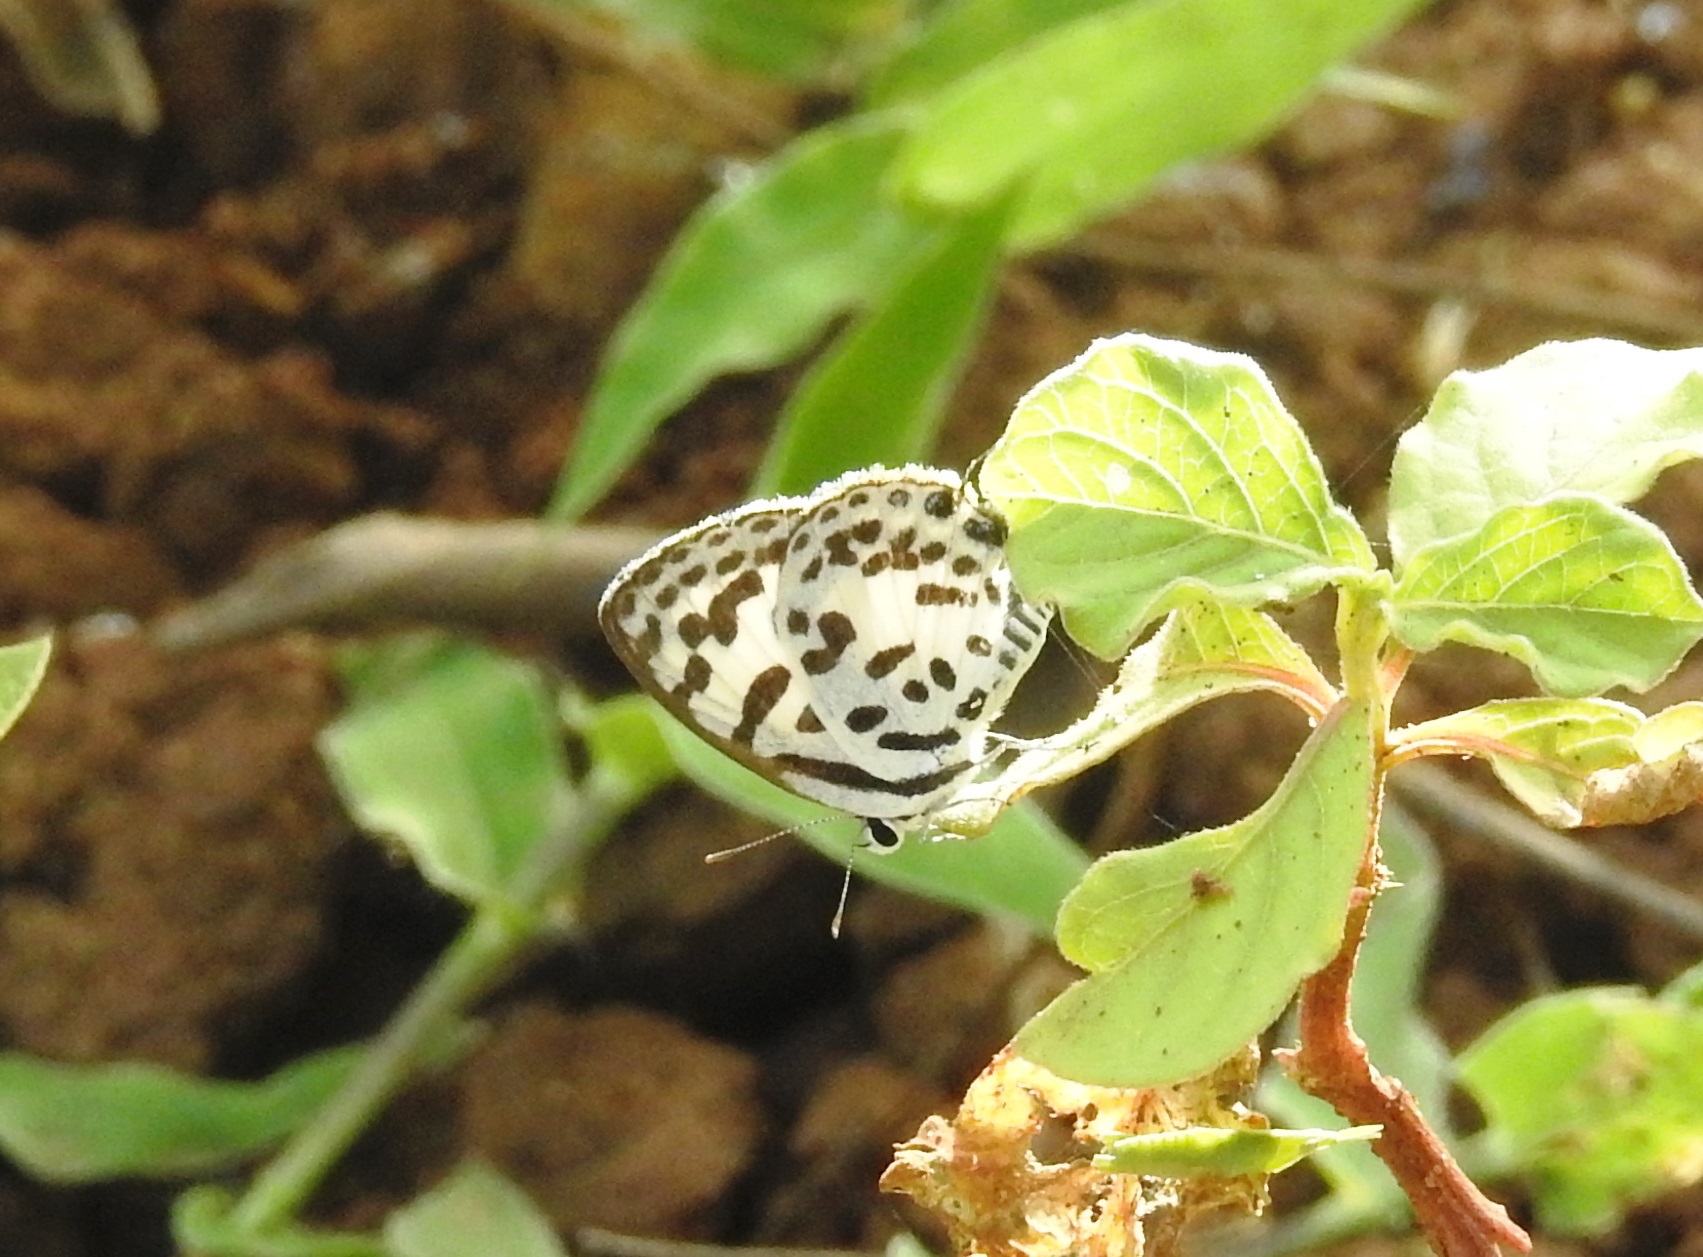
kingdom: Animalia
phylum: Arthropoda
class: Insecta
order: Lepidoptera
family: Lycaenidae
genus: Castalius
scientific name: Castalius rosimon
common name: Common pierrot
